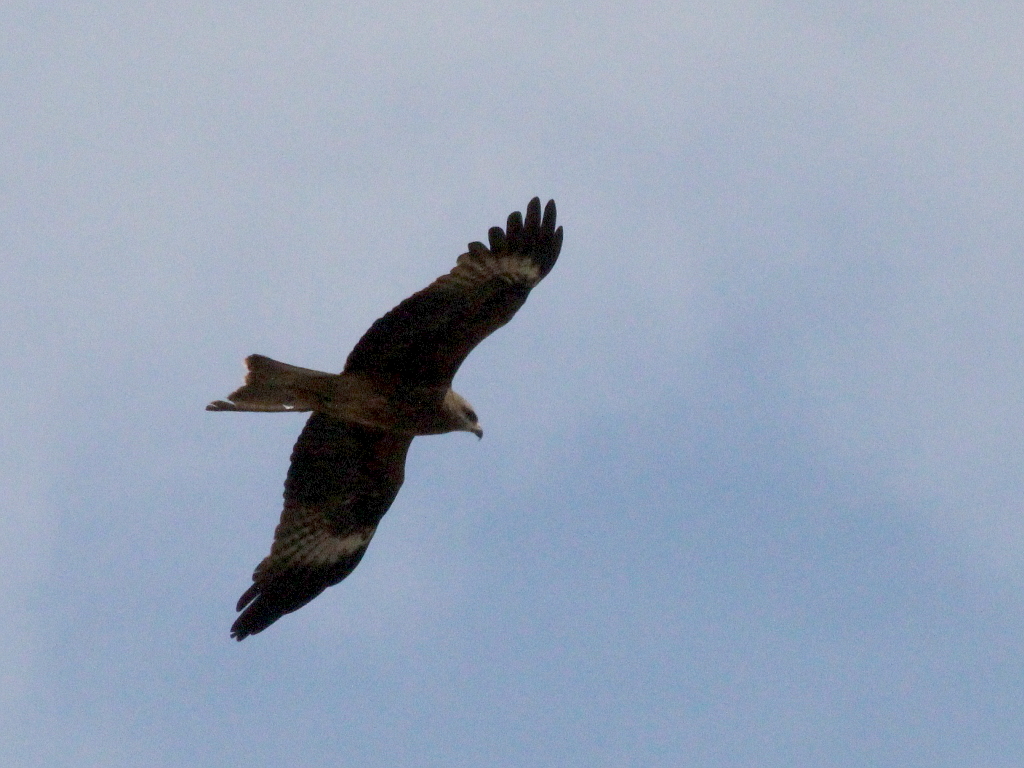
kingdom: Animalia
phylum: Chordata
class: Aves
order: Accipitriformes
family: Accipitridae
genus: Milvus
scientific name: Milvus migrans
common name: Black kite
